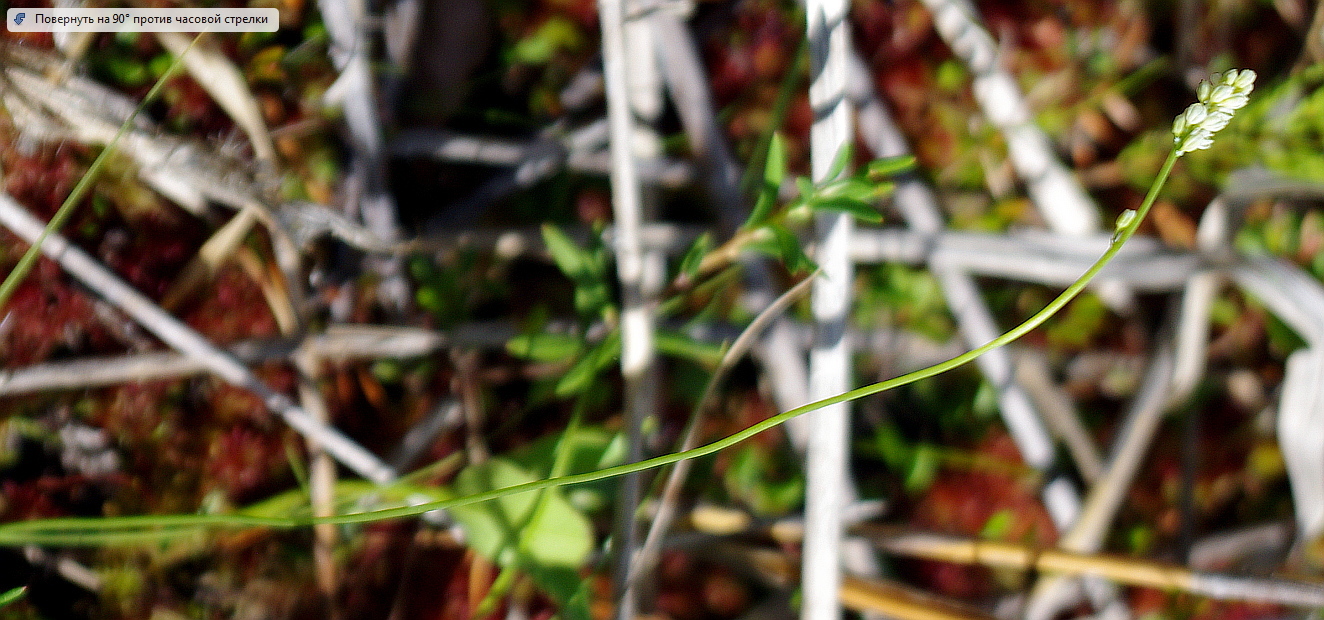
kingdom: Plantae
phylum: Tracheophyta
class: Liliopsida
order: Alismatales
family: Tofieldiaceae
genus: Tofieldia
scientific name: Tofieldia pusilla
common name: Scottish false asphodel
